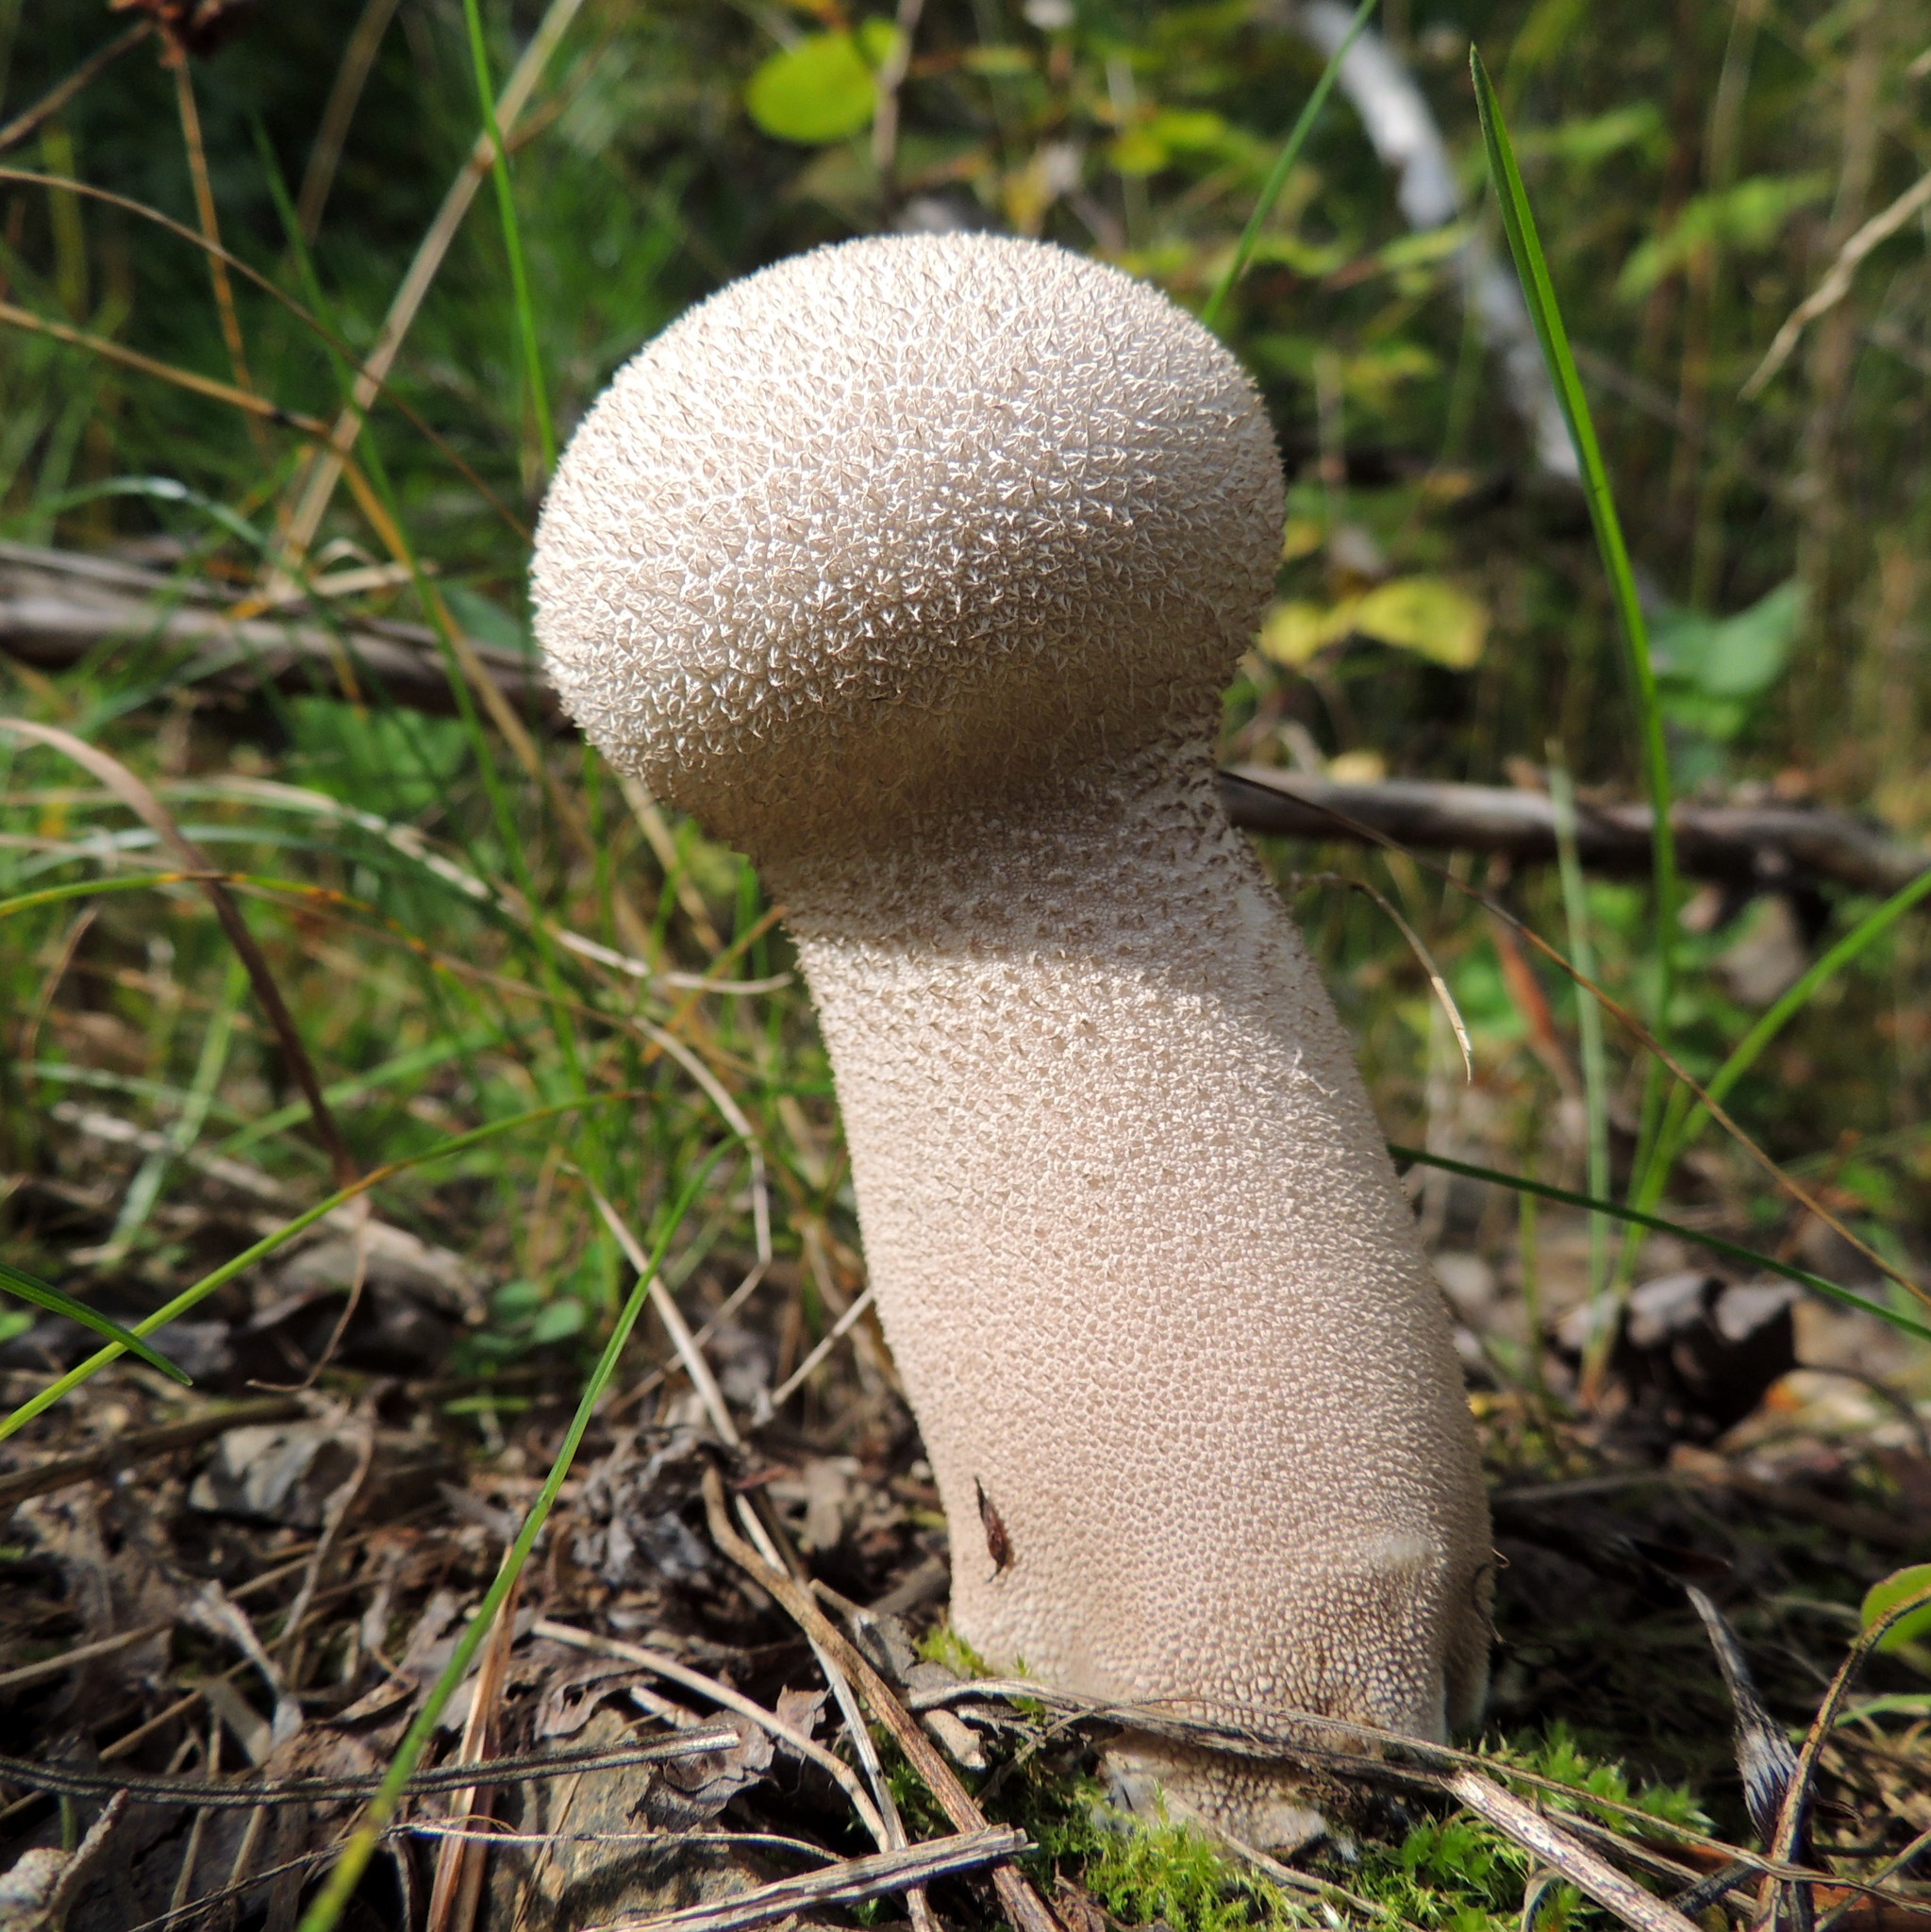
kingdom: Fungi
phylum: Basidiomycota
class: Agaricomycetes
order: Agaricales
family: Lycoperdaceae
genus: Lycoperdon
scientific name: Lycoperdon excipuliforme
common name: Pestle puffball
